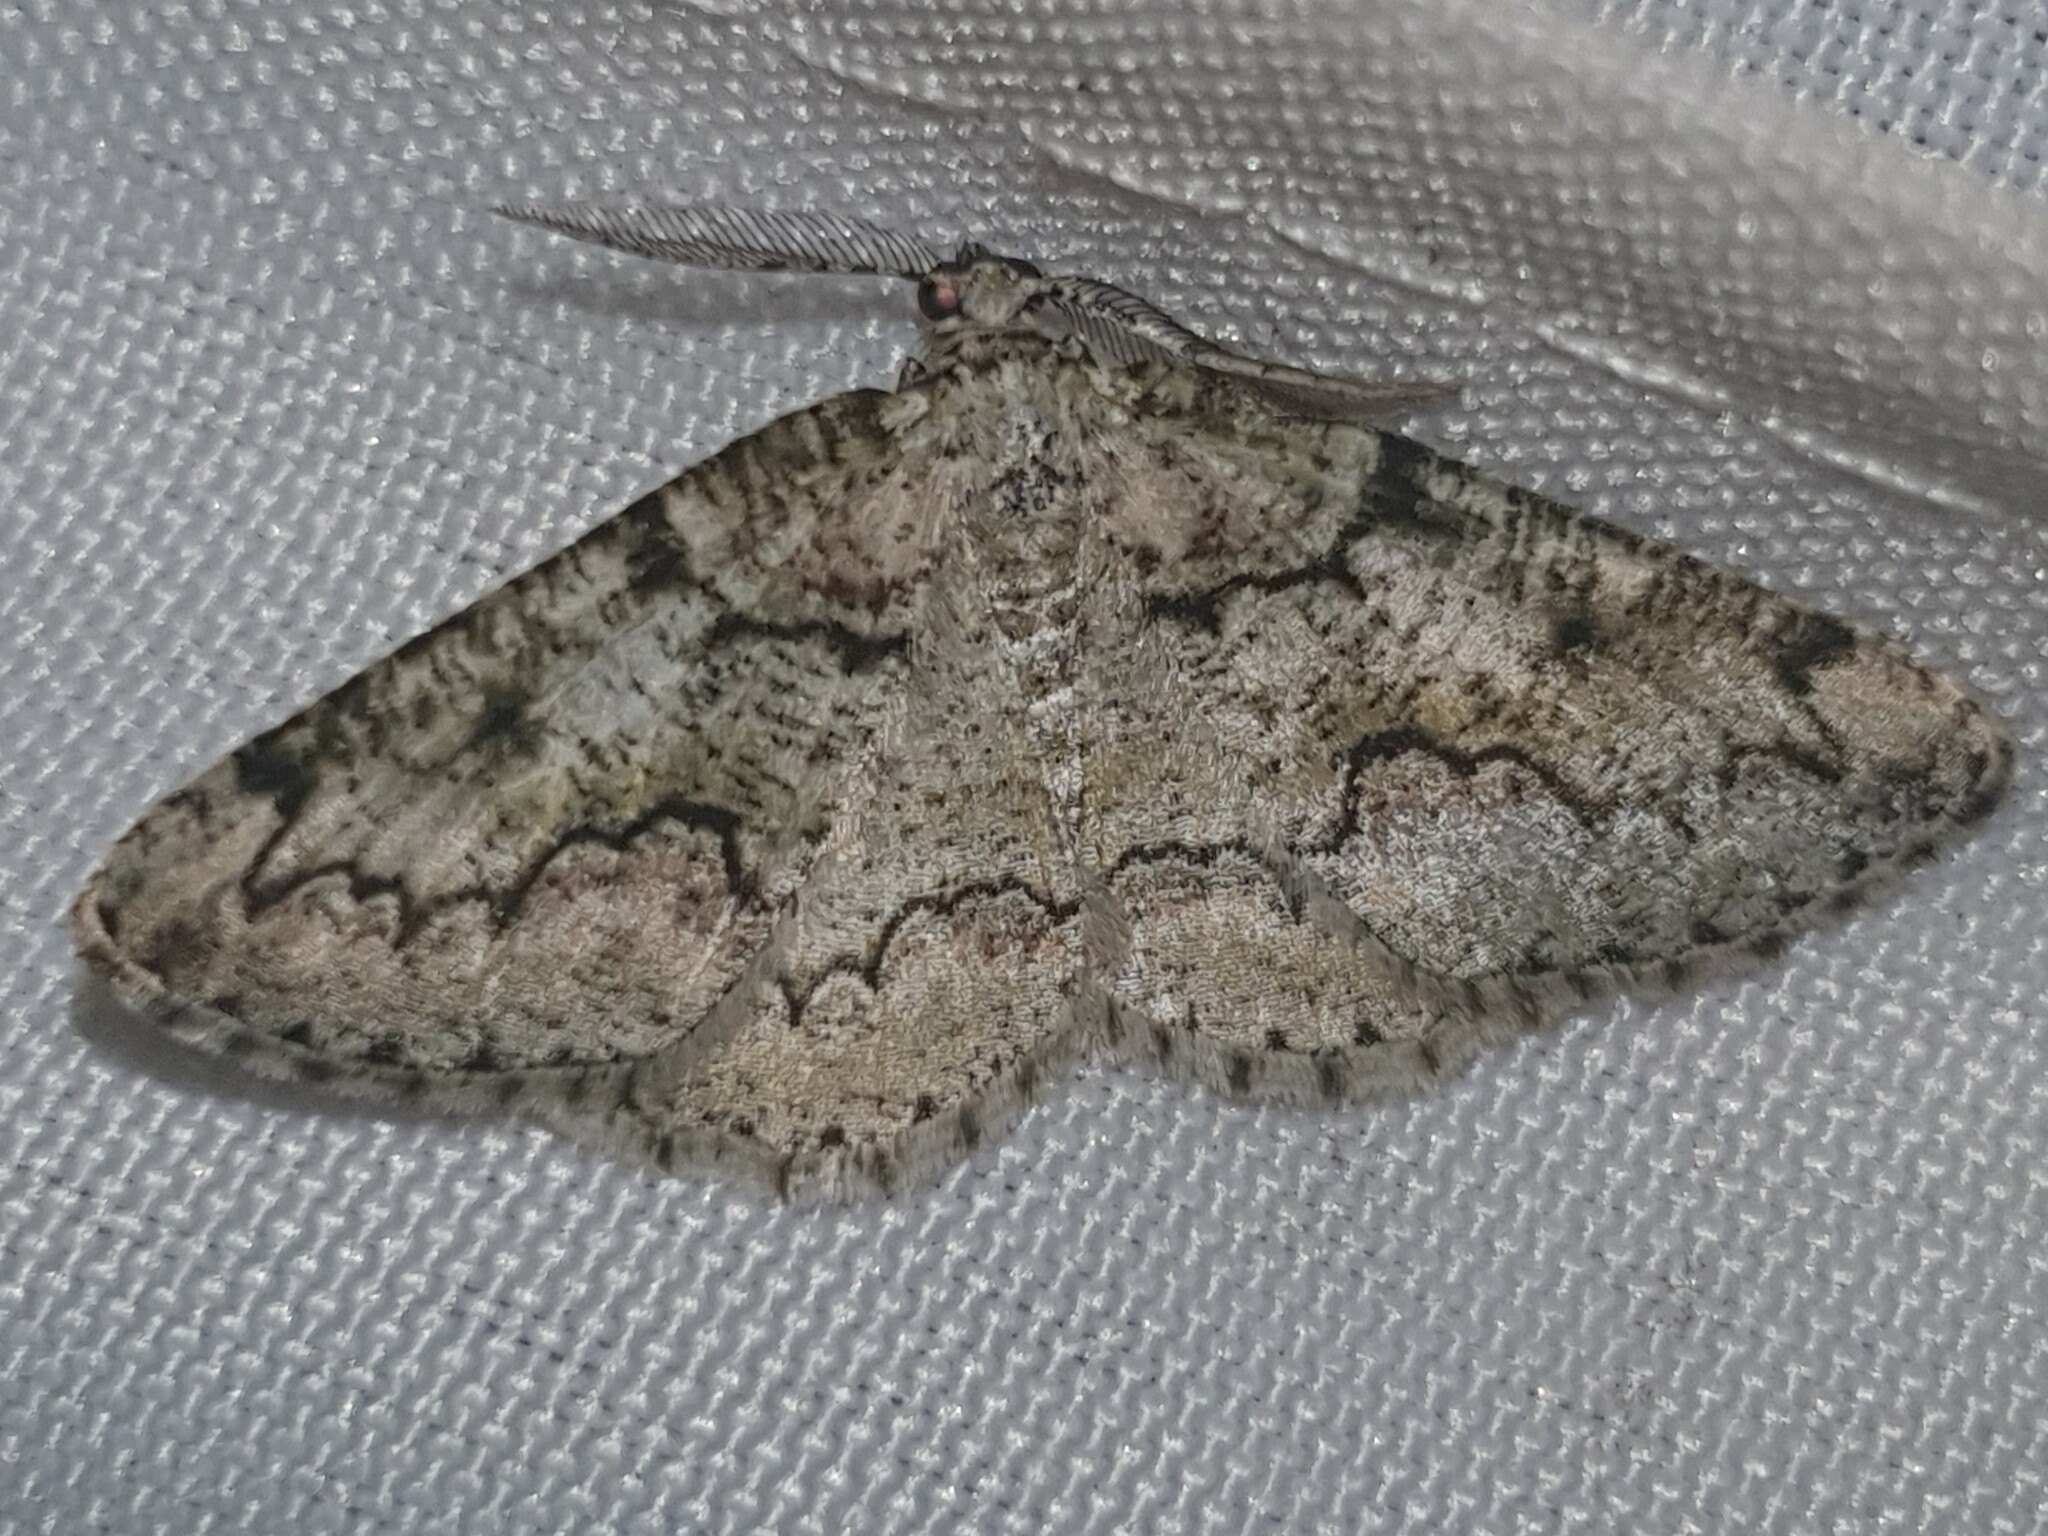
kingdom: Animalia
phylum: Arthropoda
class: Insecta
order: Lepidoptera
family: Geometridae
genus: Cleorodes
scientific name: Cleorodes lichenaria
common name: Brussels lace
